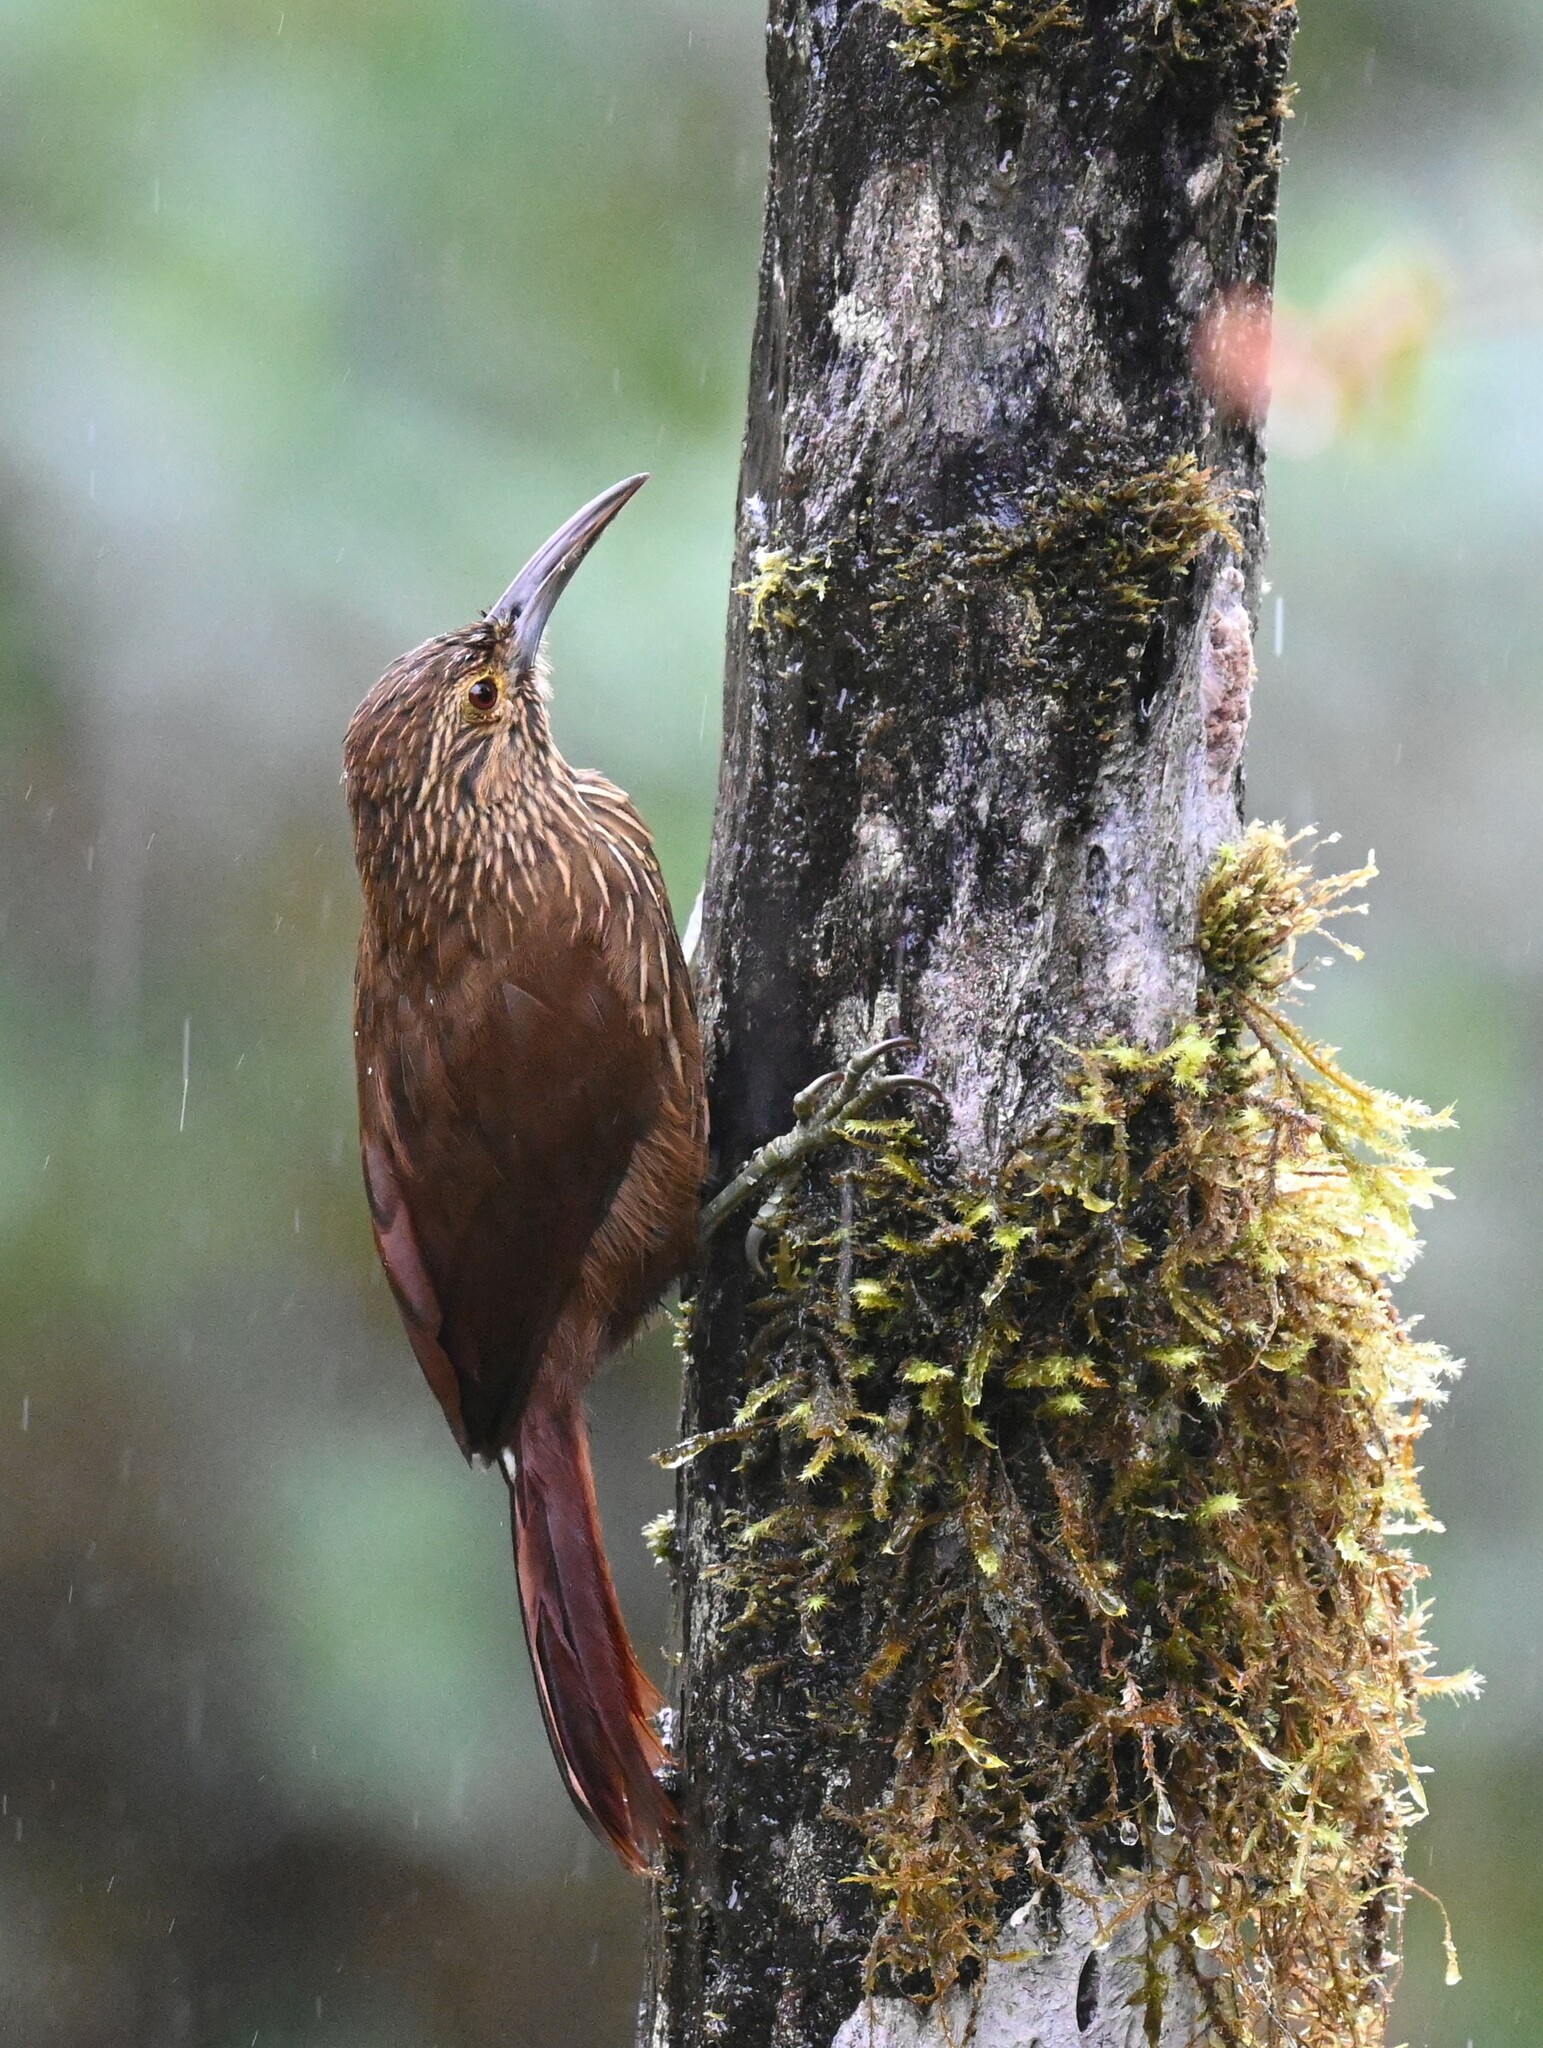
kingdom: Animalia
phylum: Chordata
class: Aves
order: Passeriformes
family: Furnariidae
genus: Xiphocolaptes
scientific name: Xiphocolaptes promeropirhynchus
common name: Strong-billed woodcreeper
